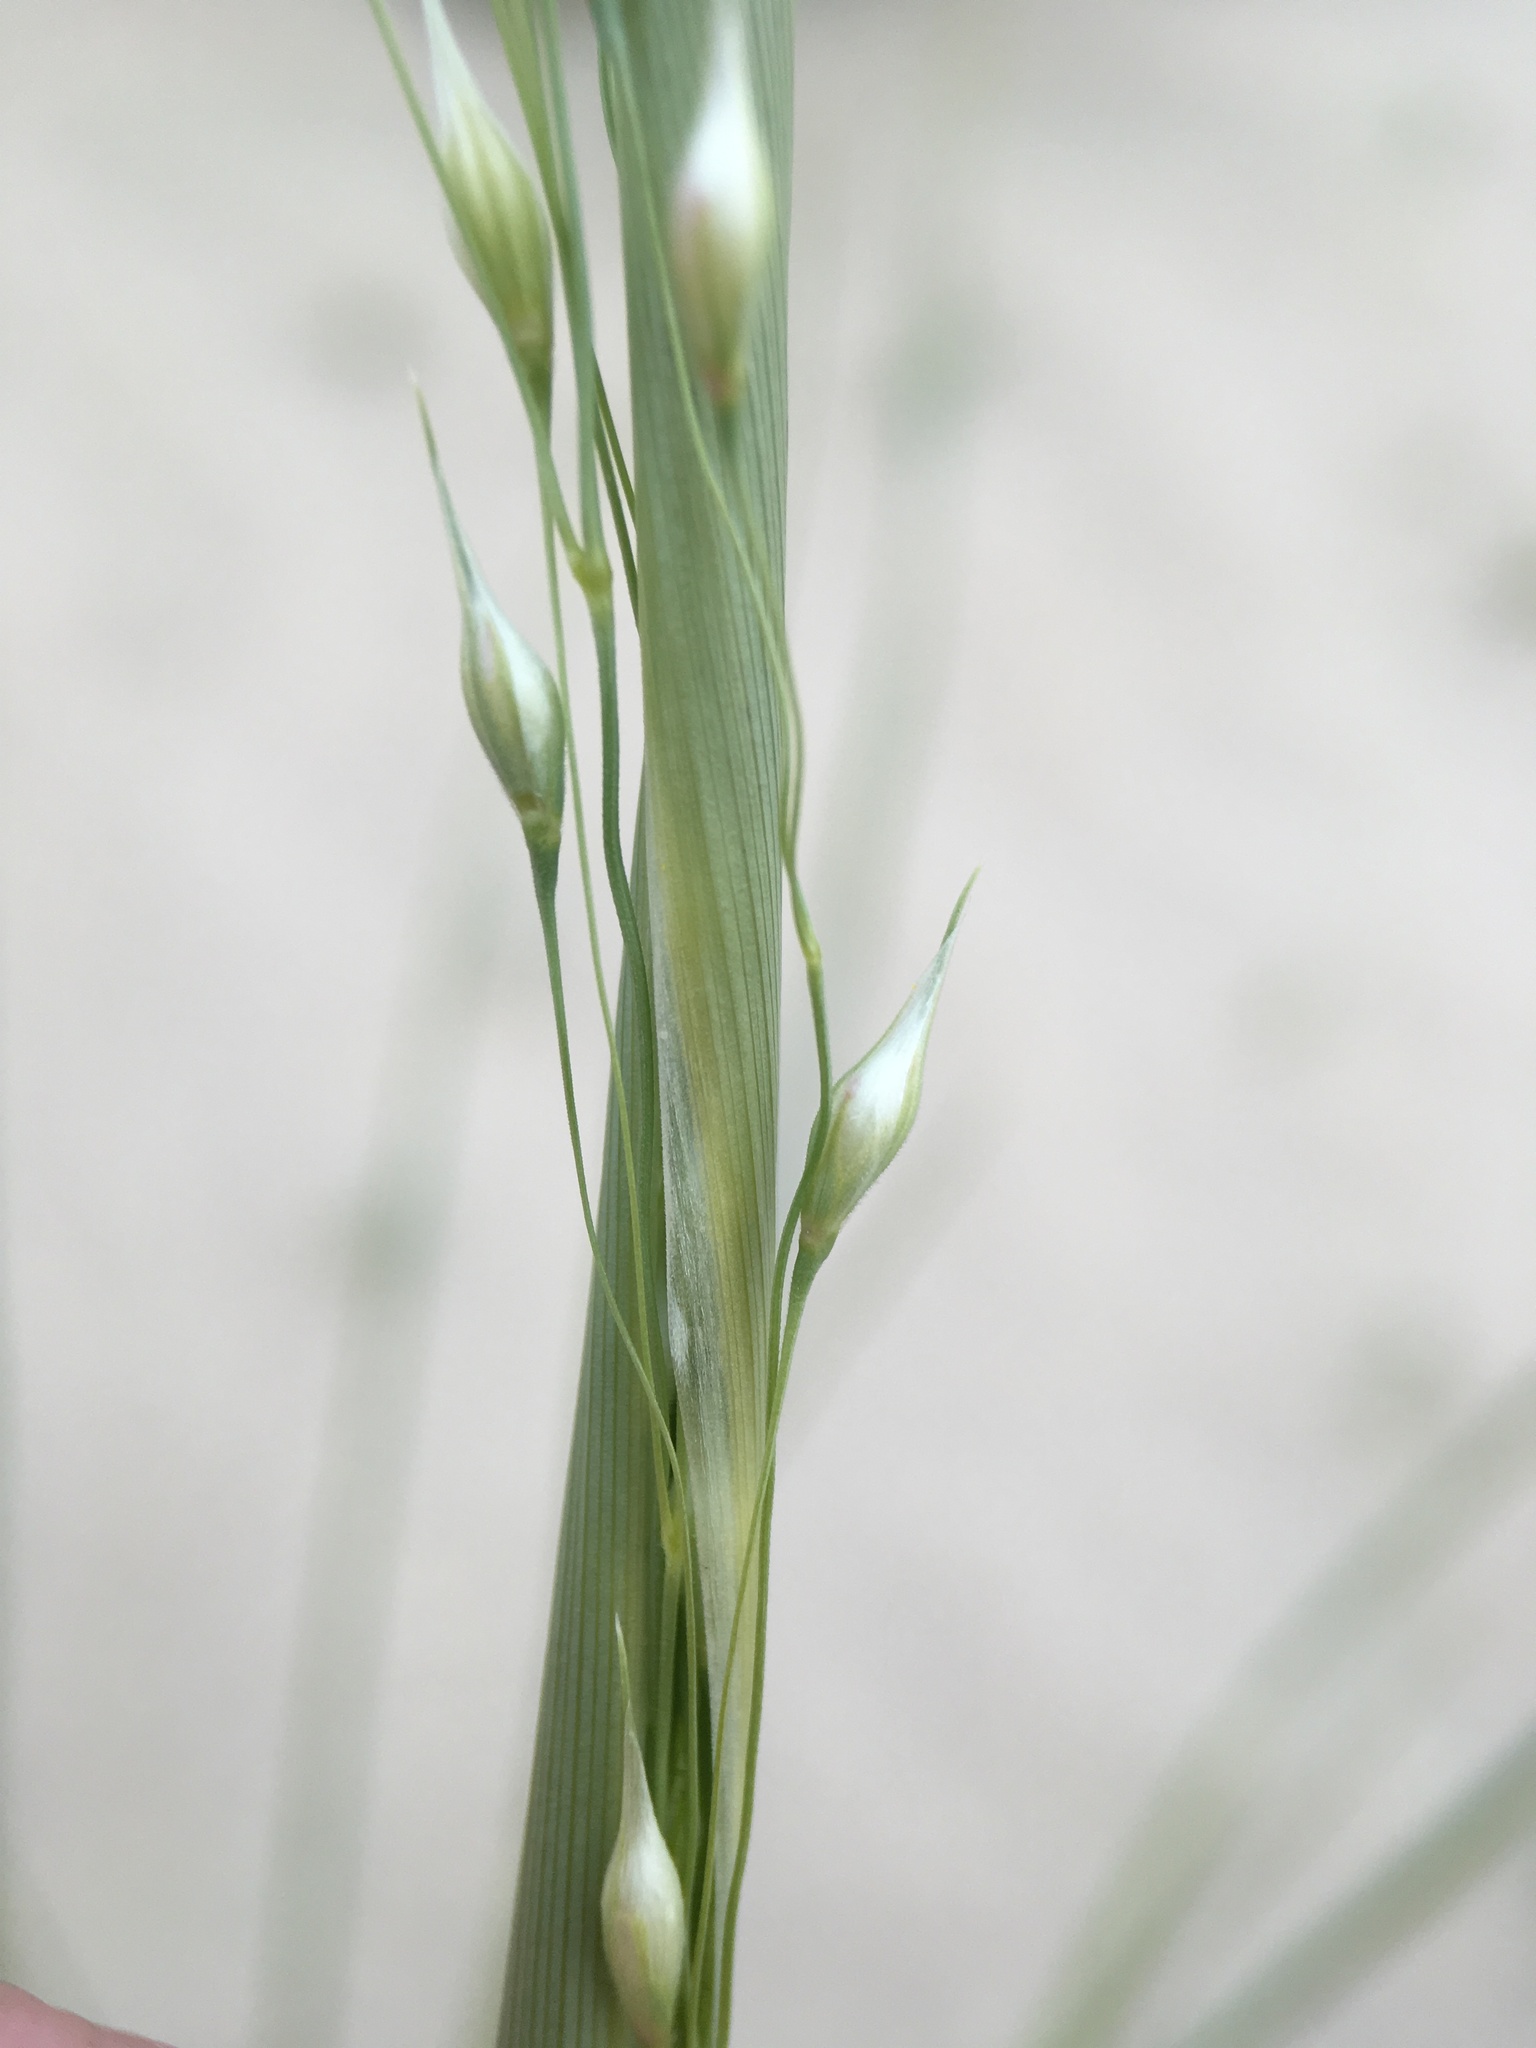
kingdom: Plantae
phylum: Tracheophyta
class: Liliopsida
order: Poales
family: Poaceae
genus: Eriocoma
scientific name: Eriocoma hymenoides
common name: Indian mountain ricegrass
